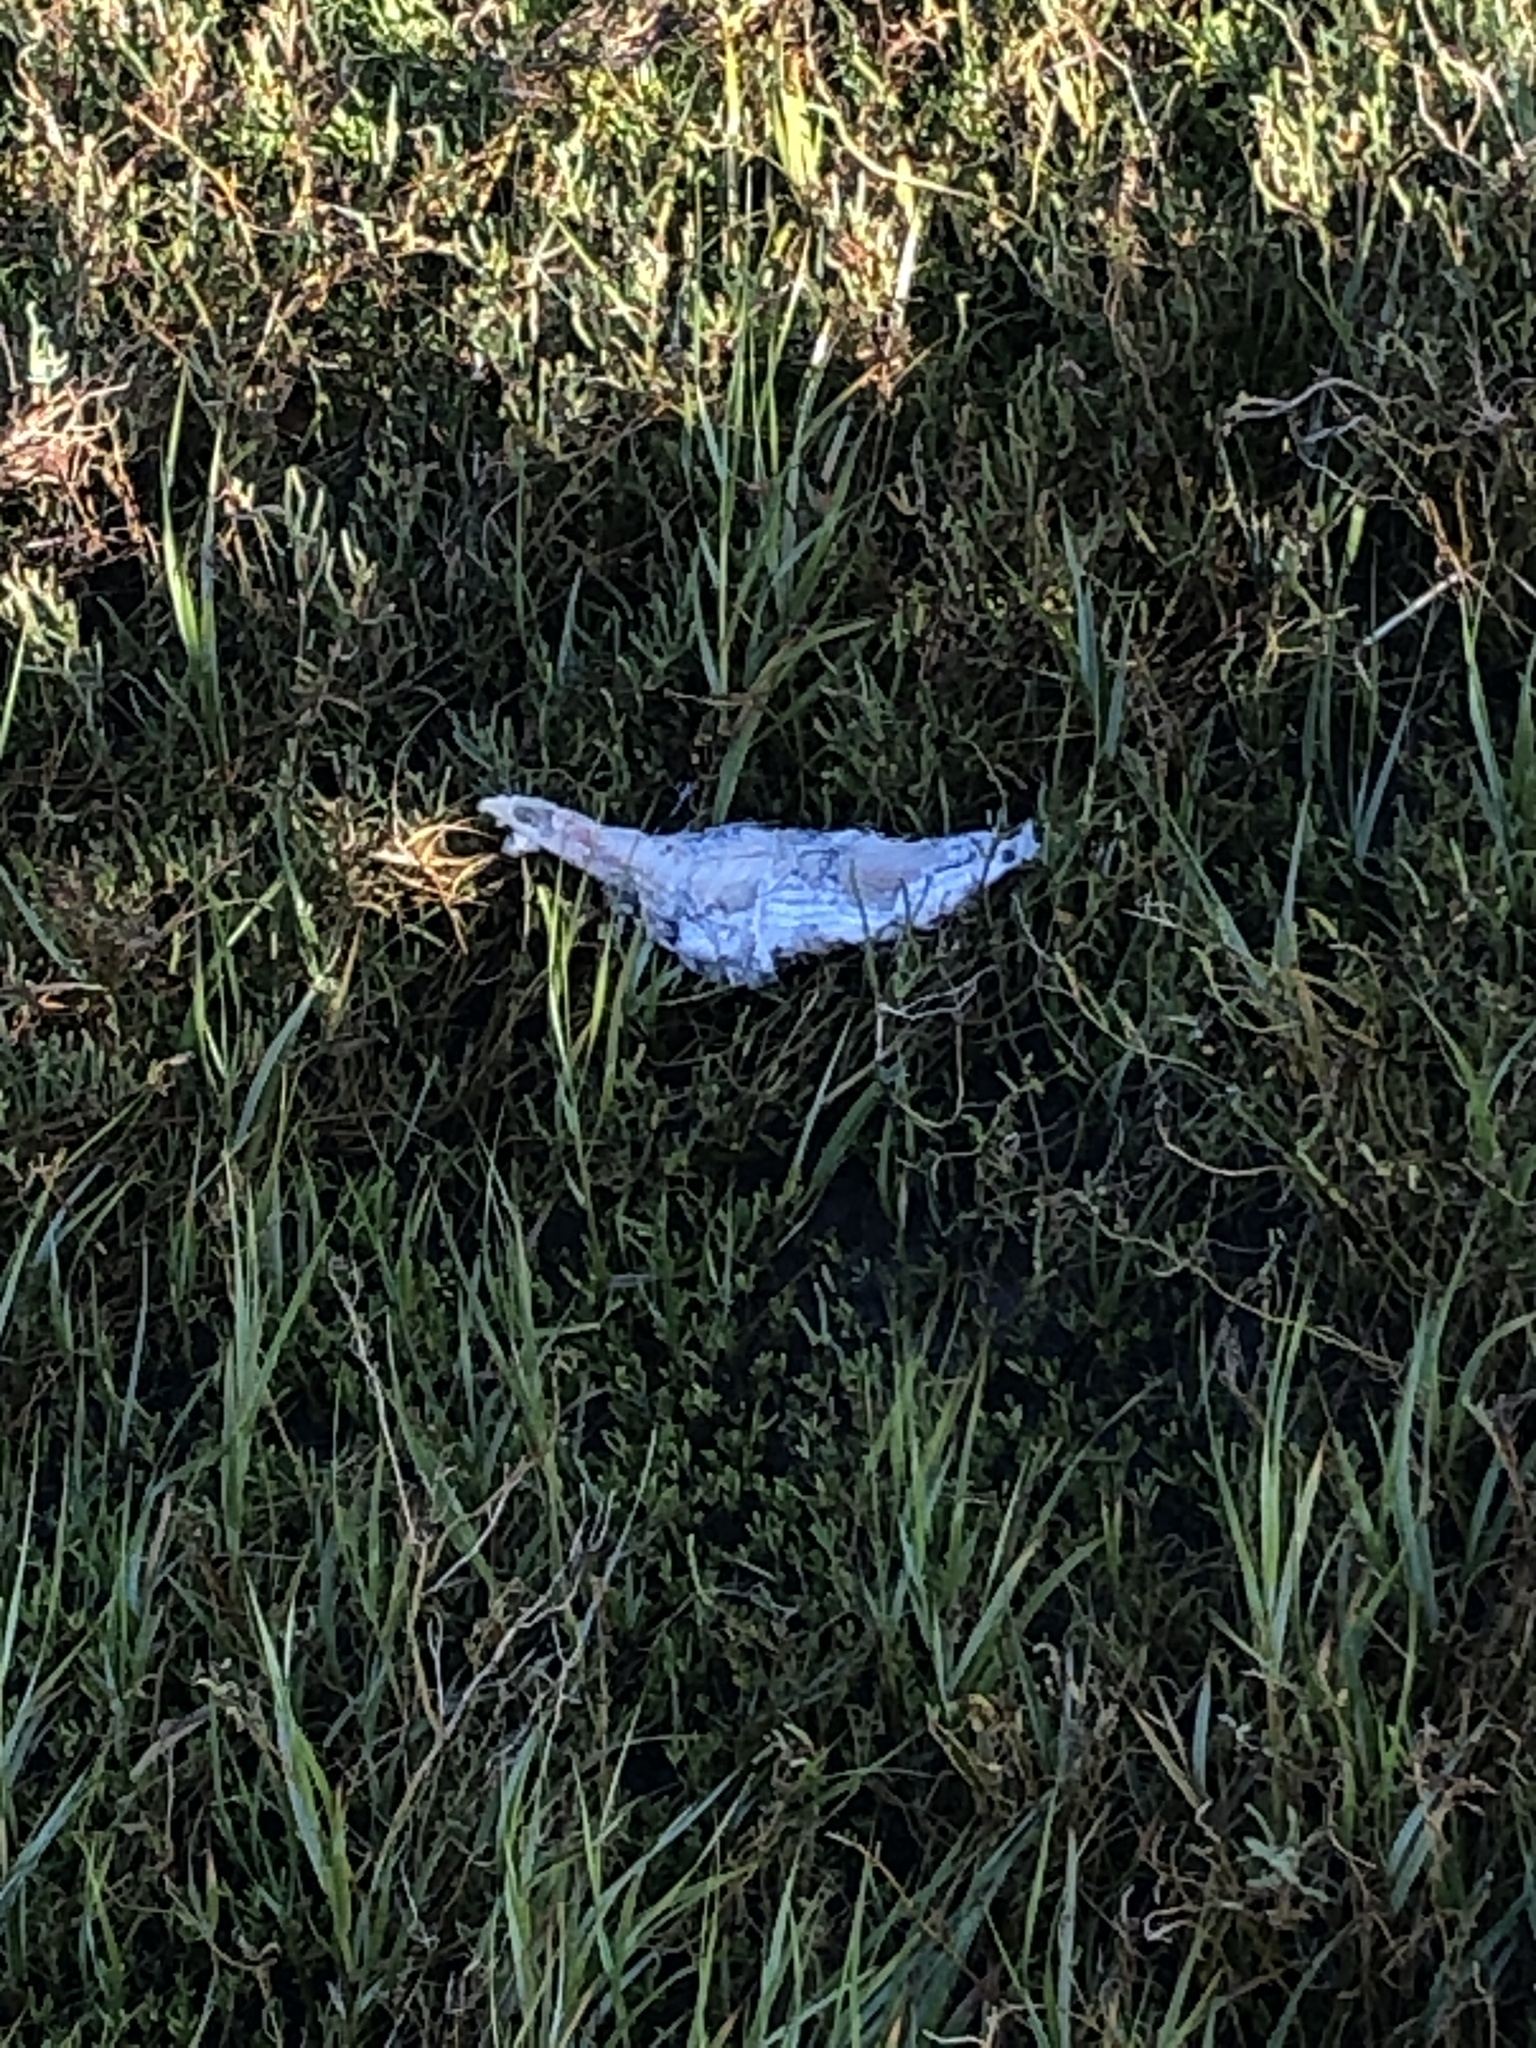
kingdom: Animalia
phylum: Chordata
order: Perciformes
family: Moronidae
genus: Morone
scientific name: Morone saxatilis
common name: Striped bass
